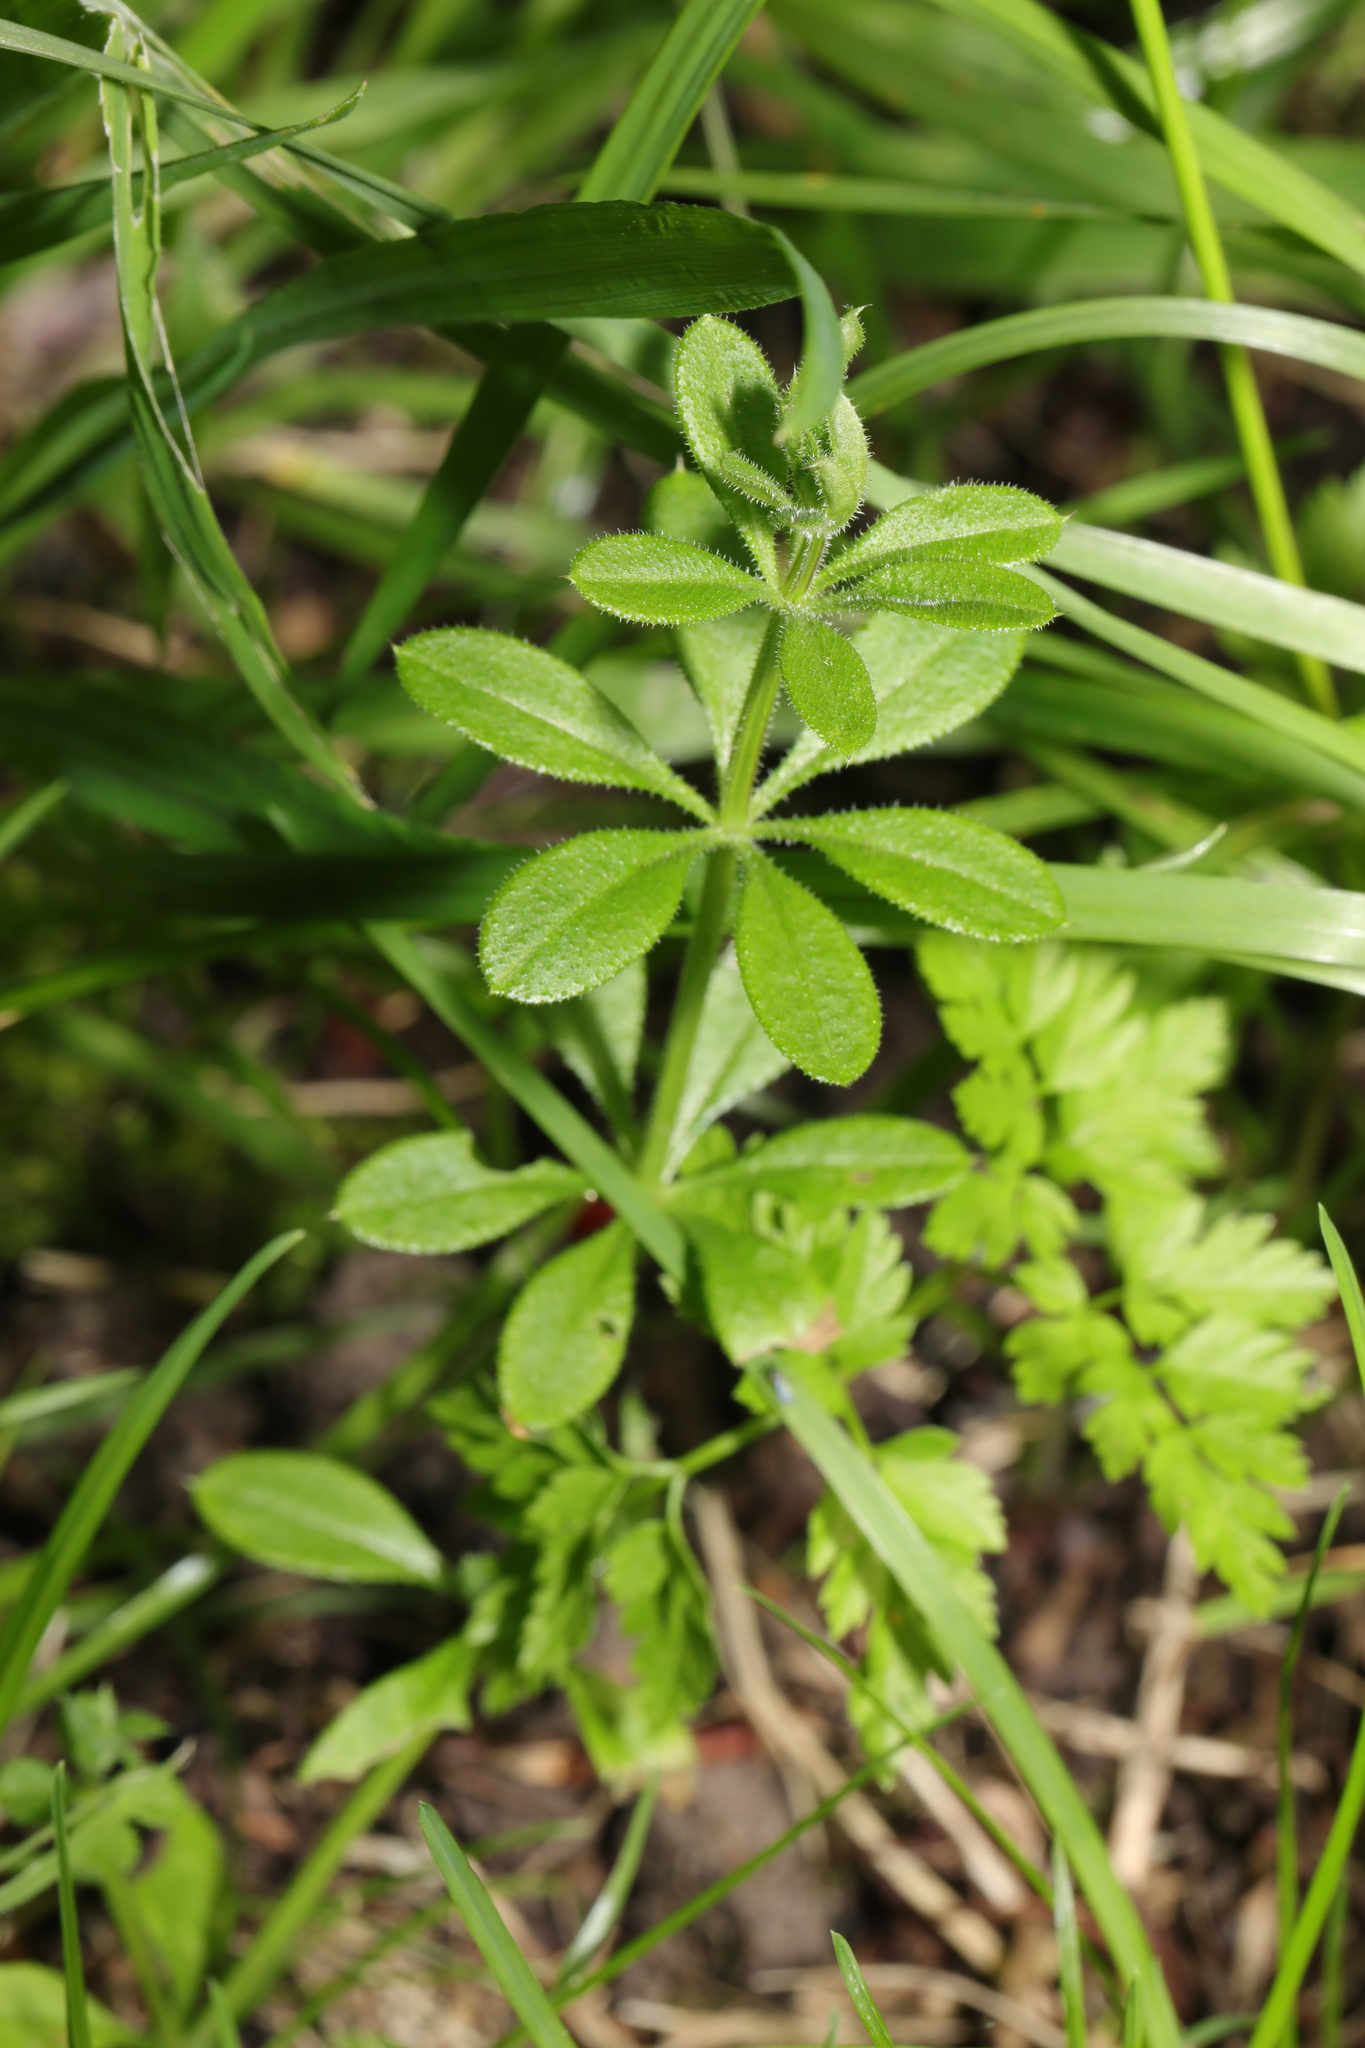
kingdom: Plantae
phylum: Tracheophyta
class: Magnoliopsida
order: Gentianales
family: Rubiaceae
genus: Galium
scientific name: Galium aparine
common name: Cleavers
